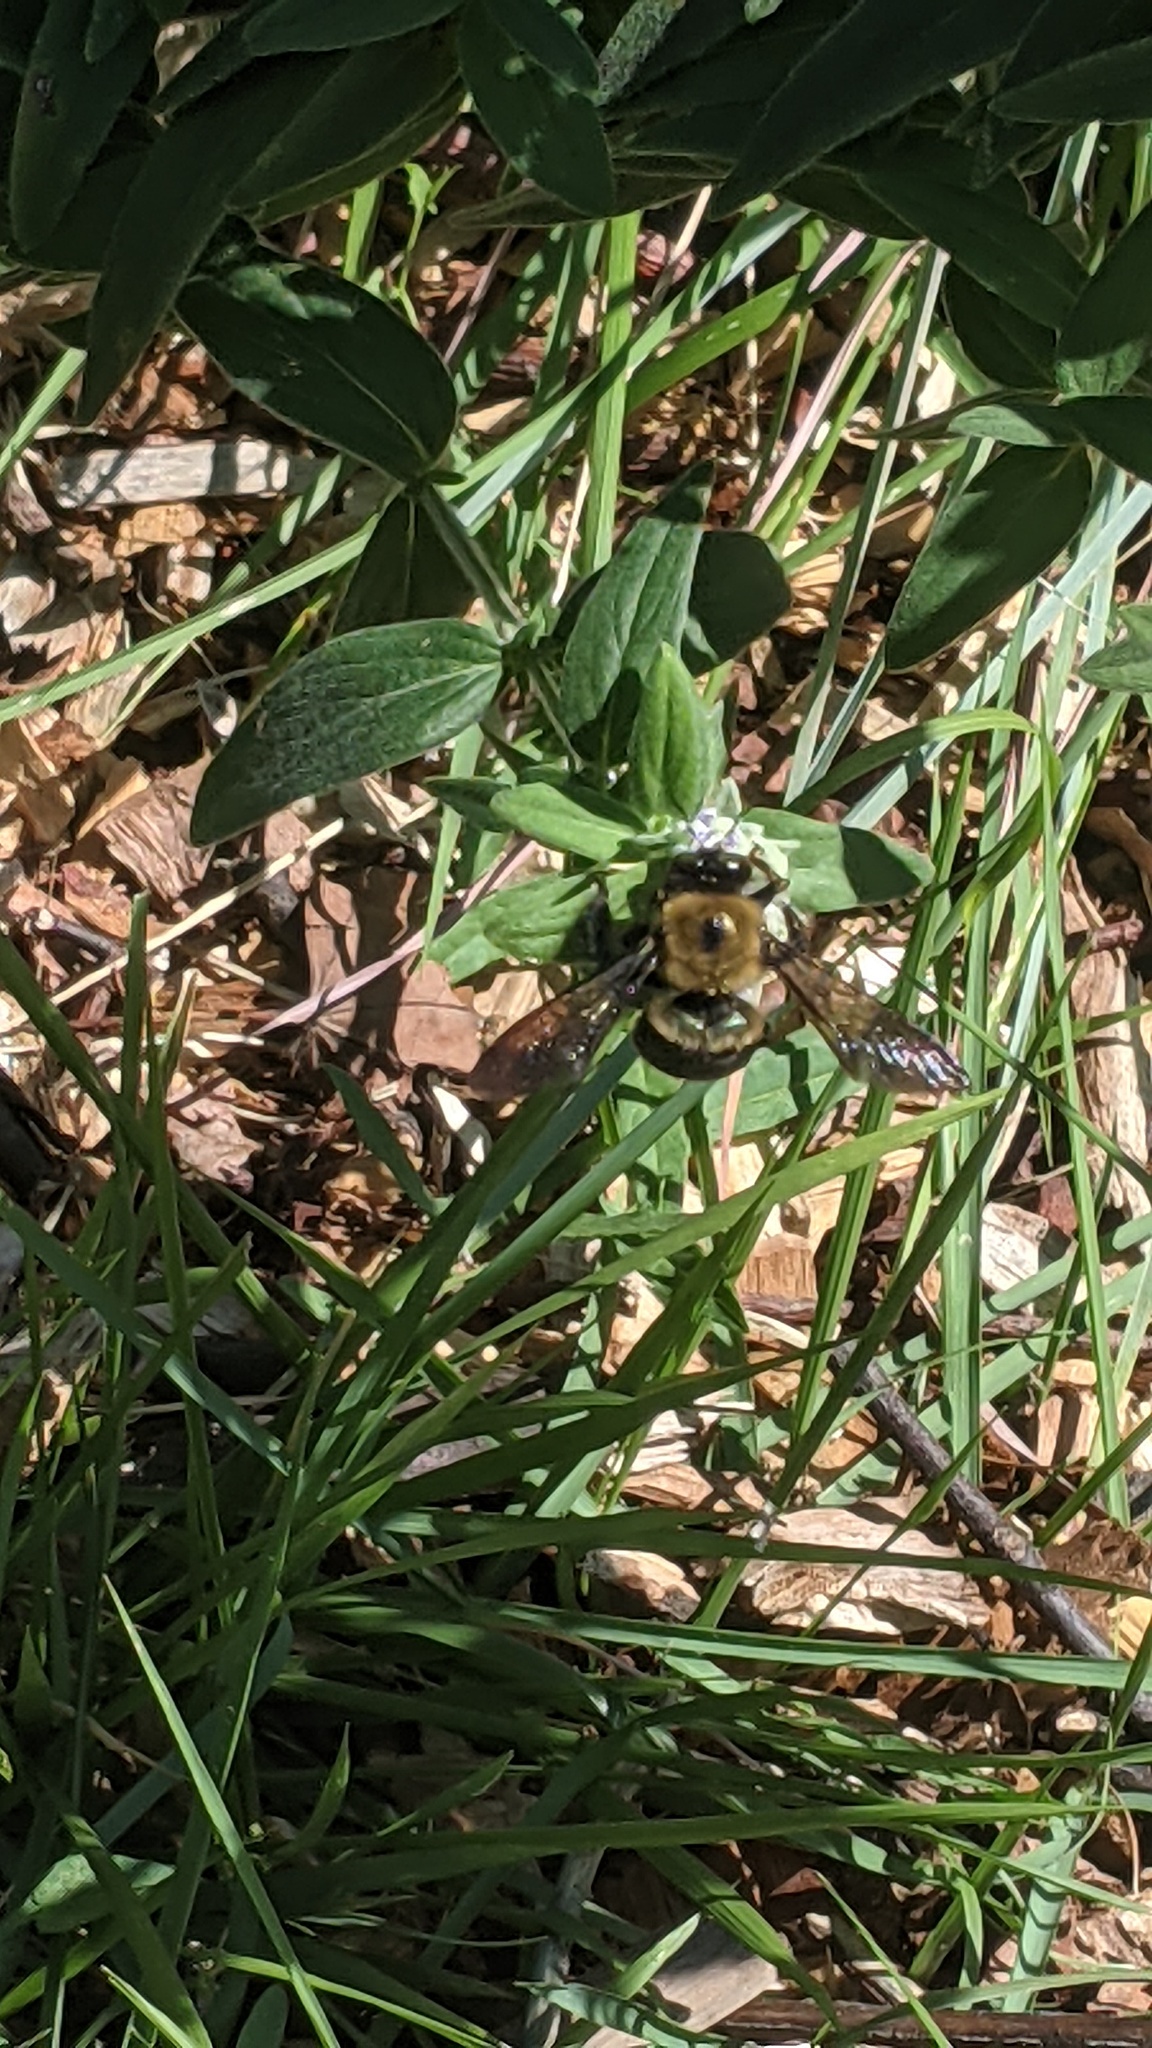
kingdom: Animalia
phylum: Arthropoda
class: Insecta
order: Hymenoptera
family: Apidae
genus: Xylocopa
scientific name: Xylocopa virginica
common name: Carpenter bee
